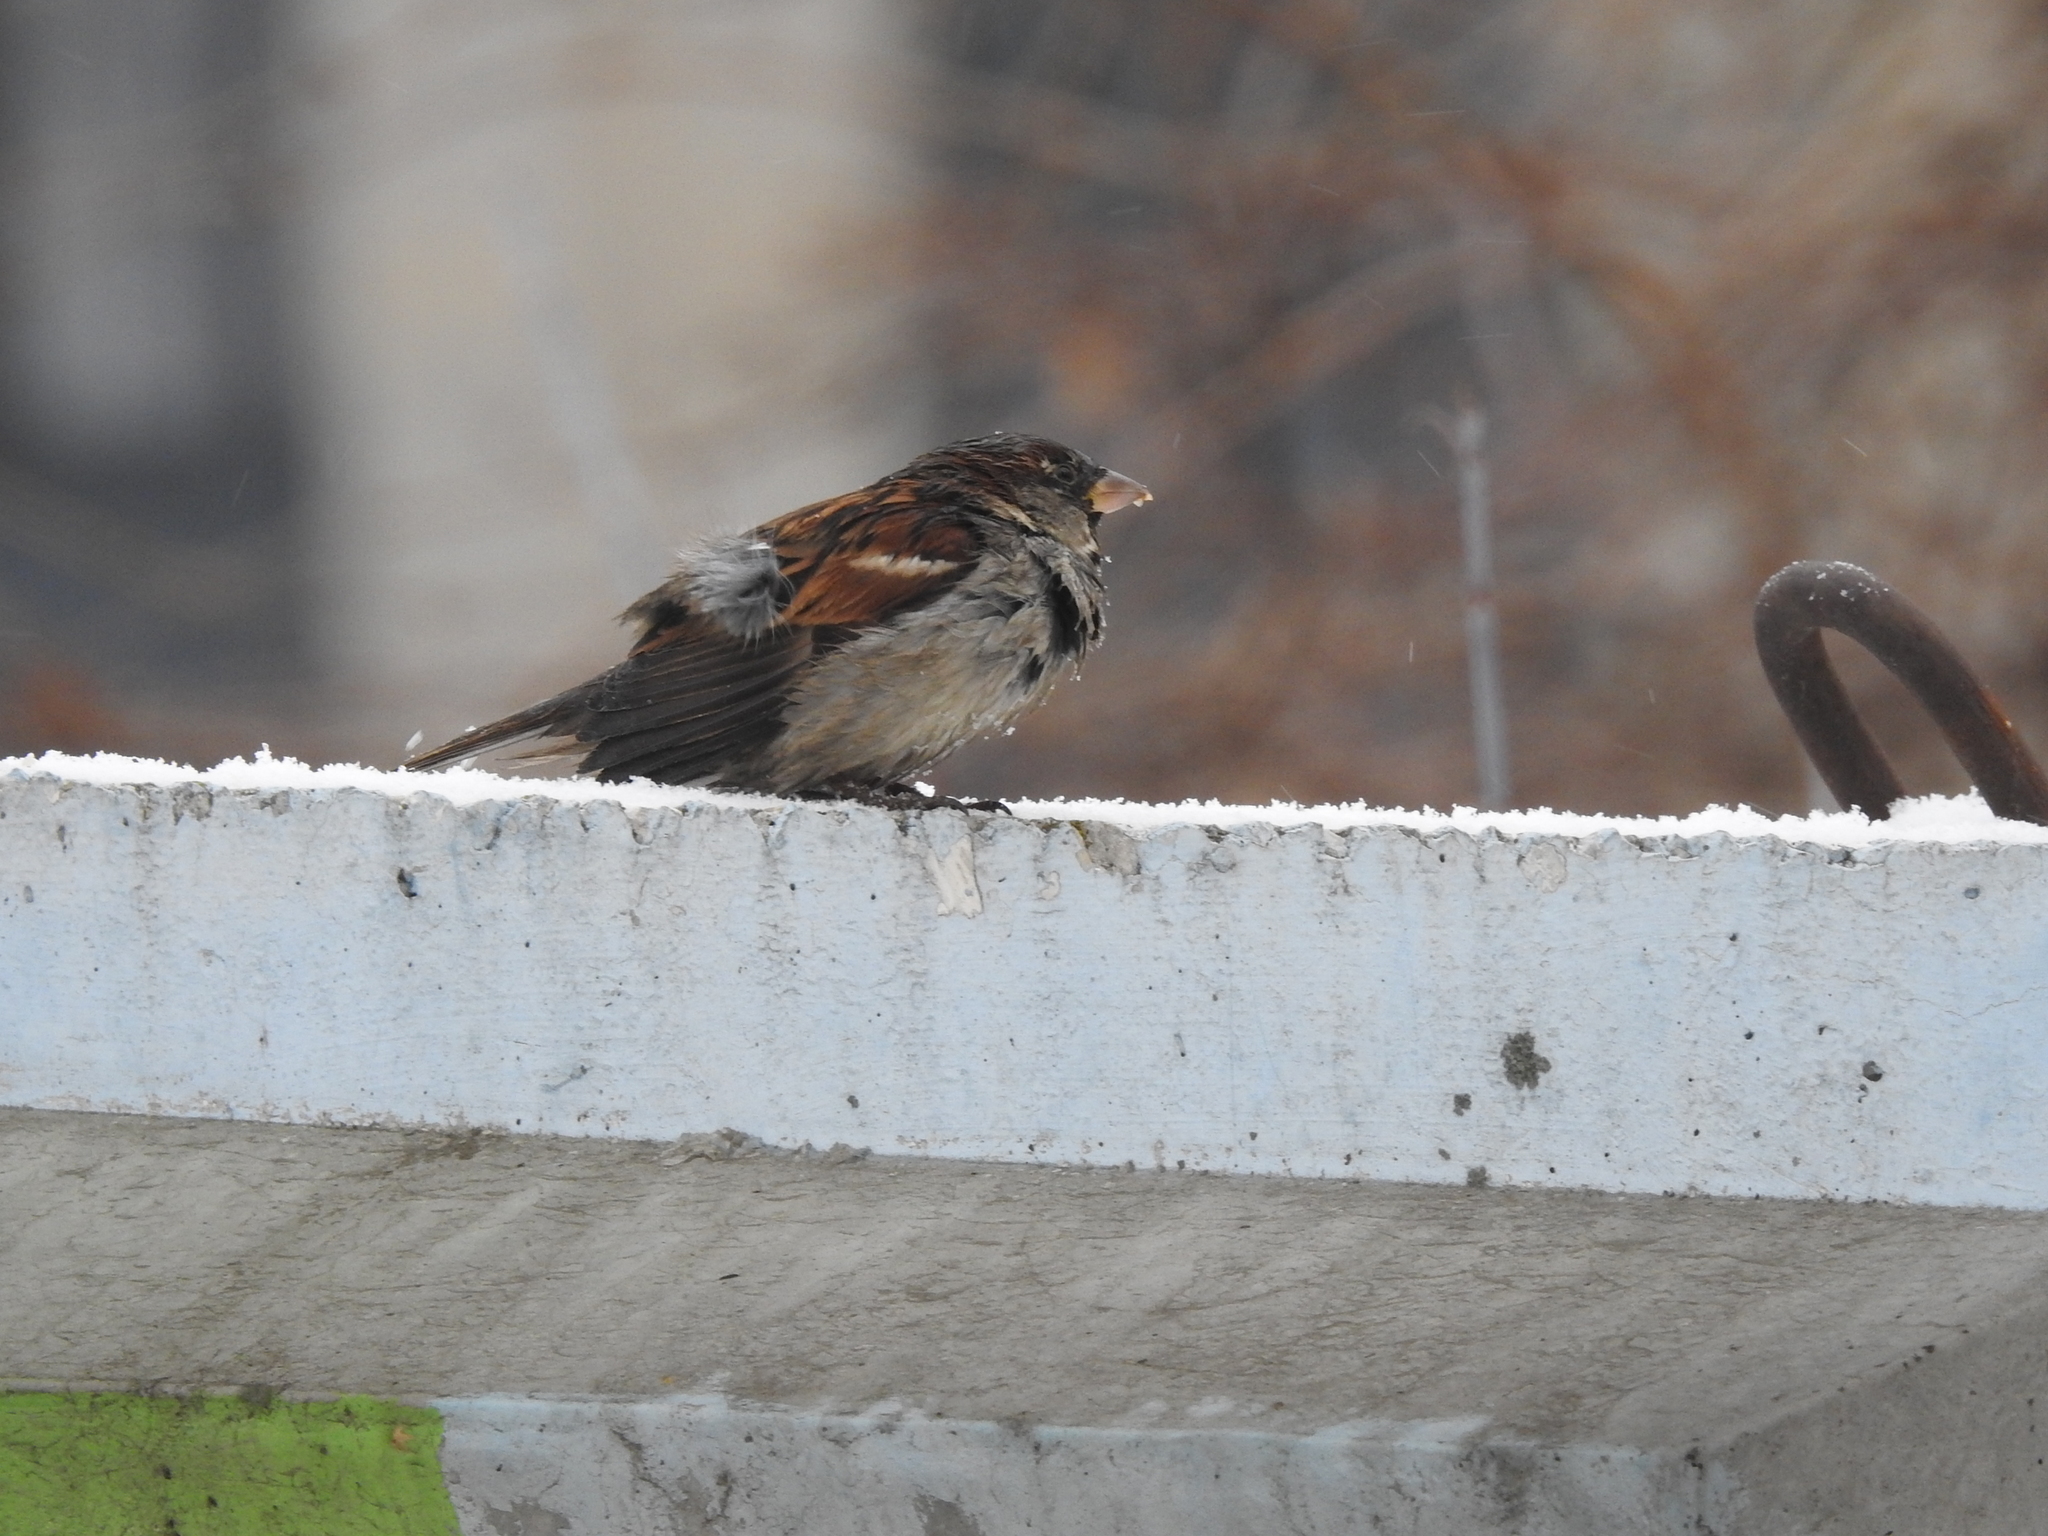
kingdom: Animalia
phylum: Chordata
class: Aves
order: Passeriformes
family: Passeridae
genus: Passer
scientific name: Passer domesticus
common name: House sparrow
